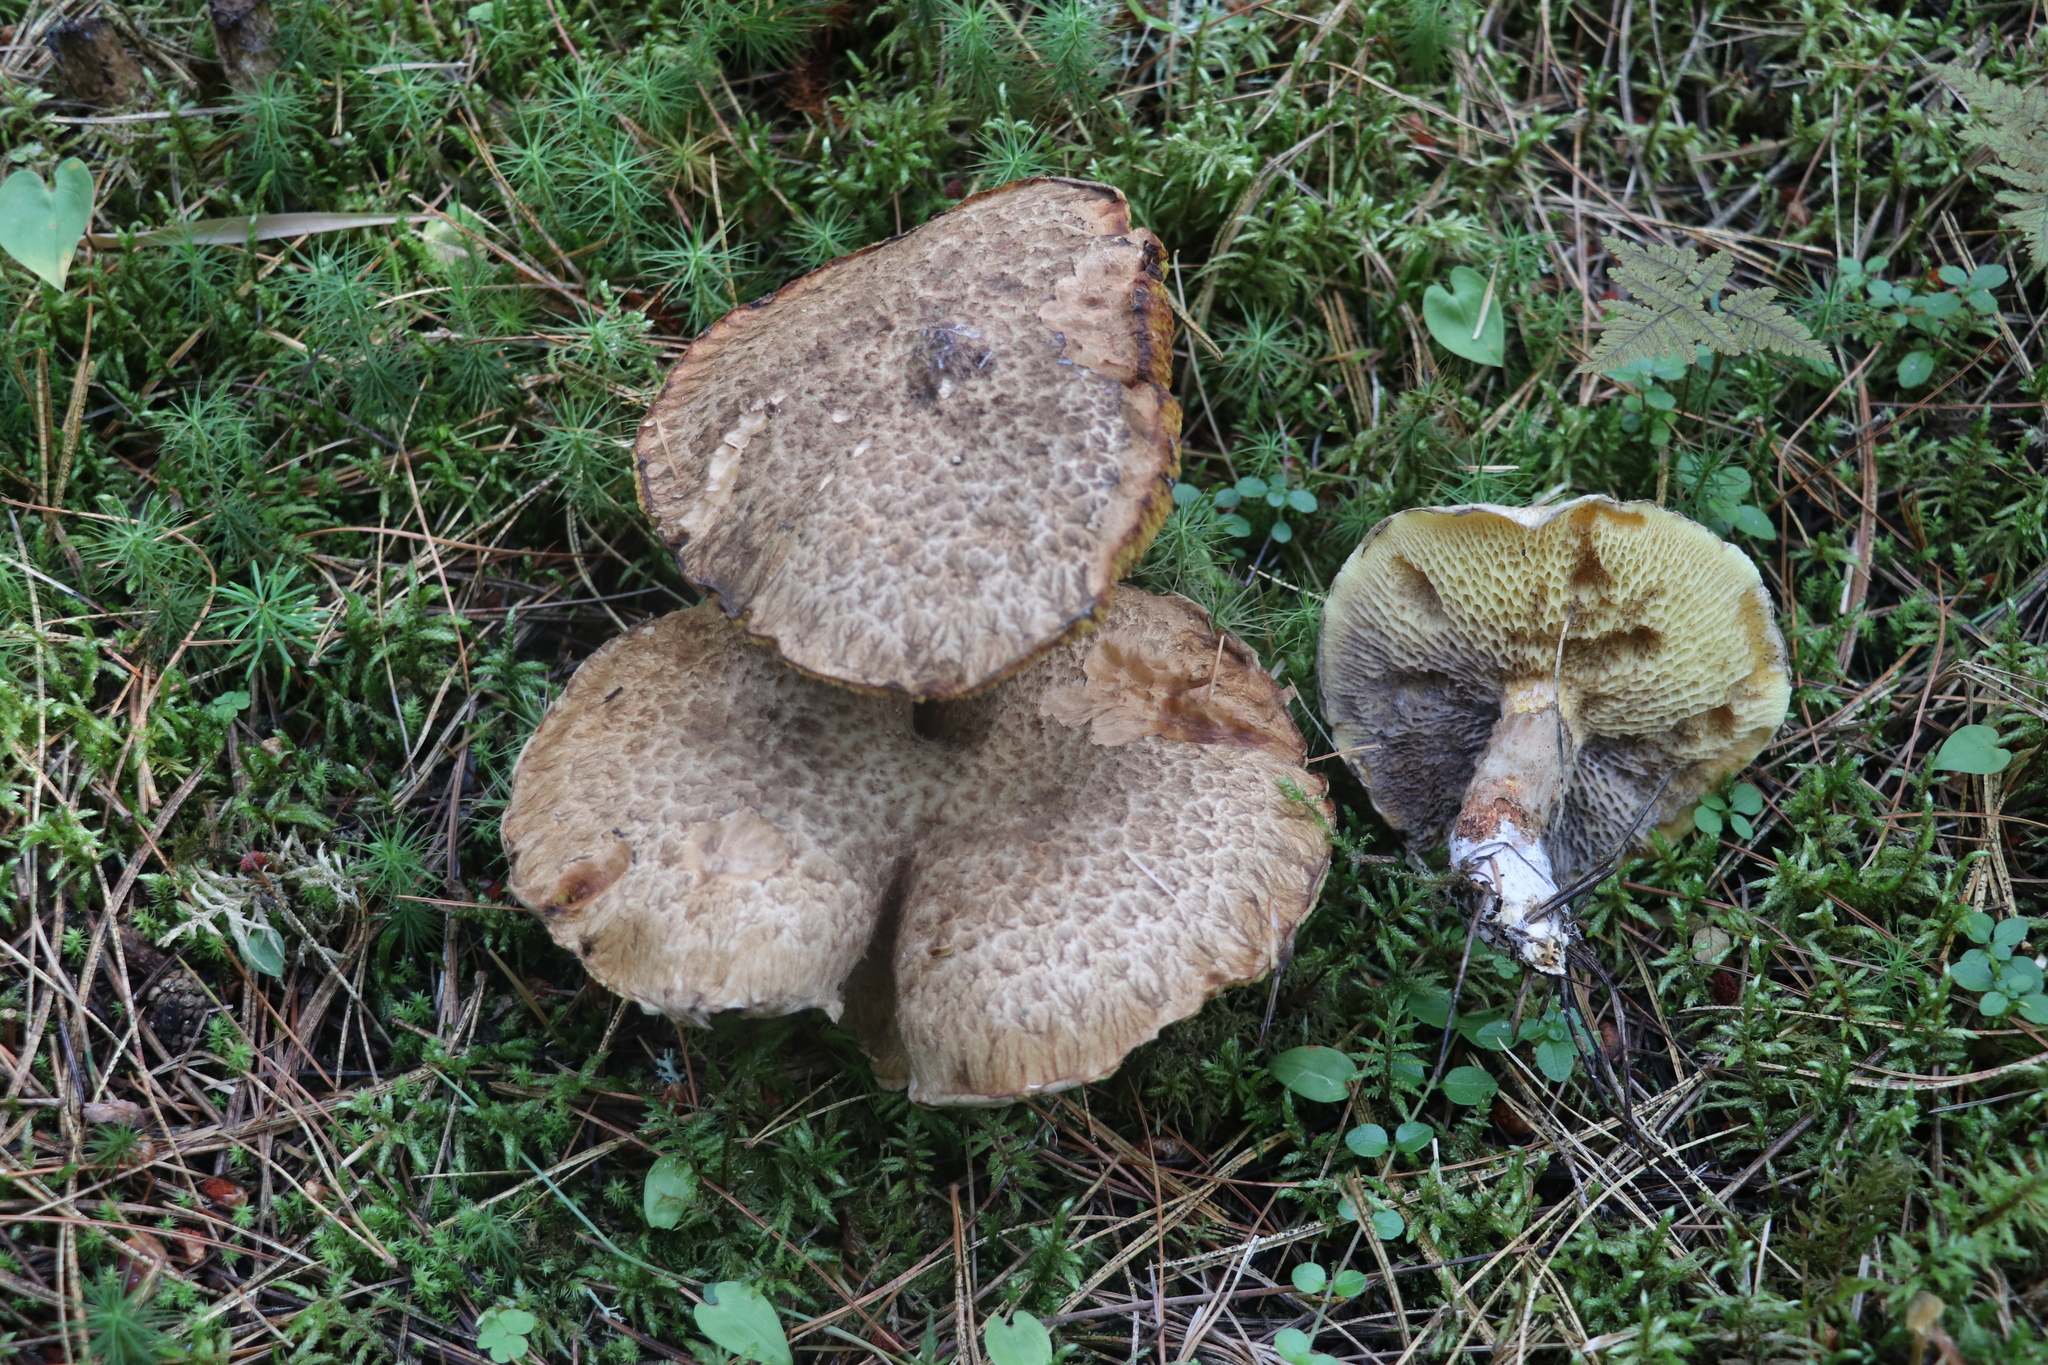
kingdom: Fungi
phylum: Basidiomycota
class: Agaricomycetes
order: Boletales
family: Suillaceae
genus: Suillus
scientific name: Suillus spraguei
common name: Painted suillus
